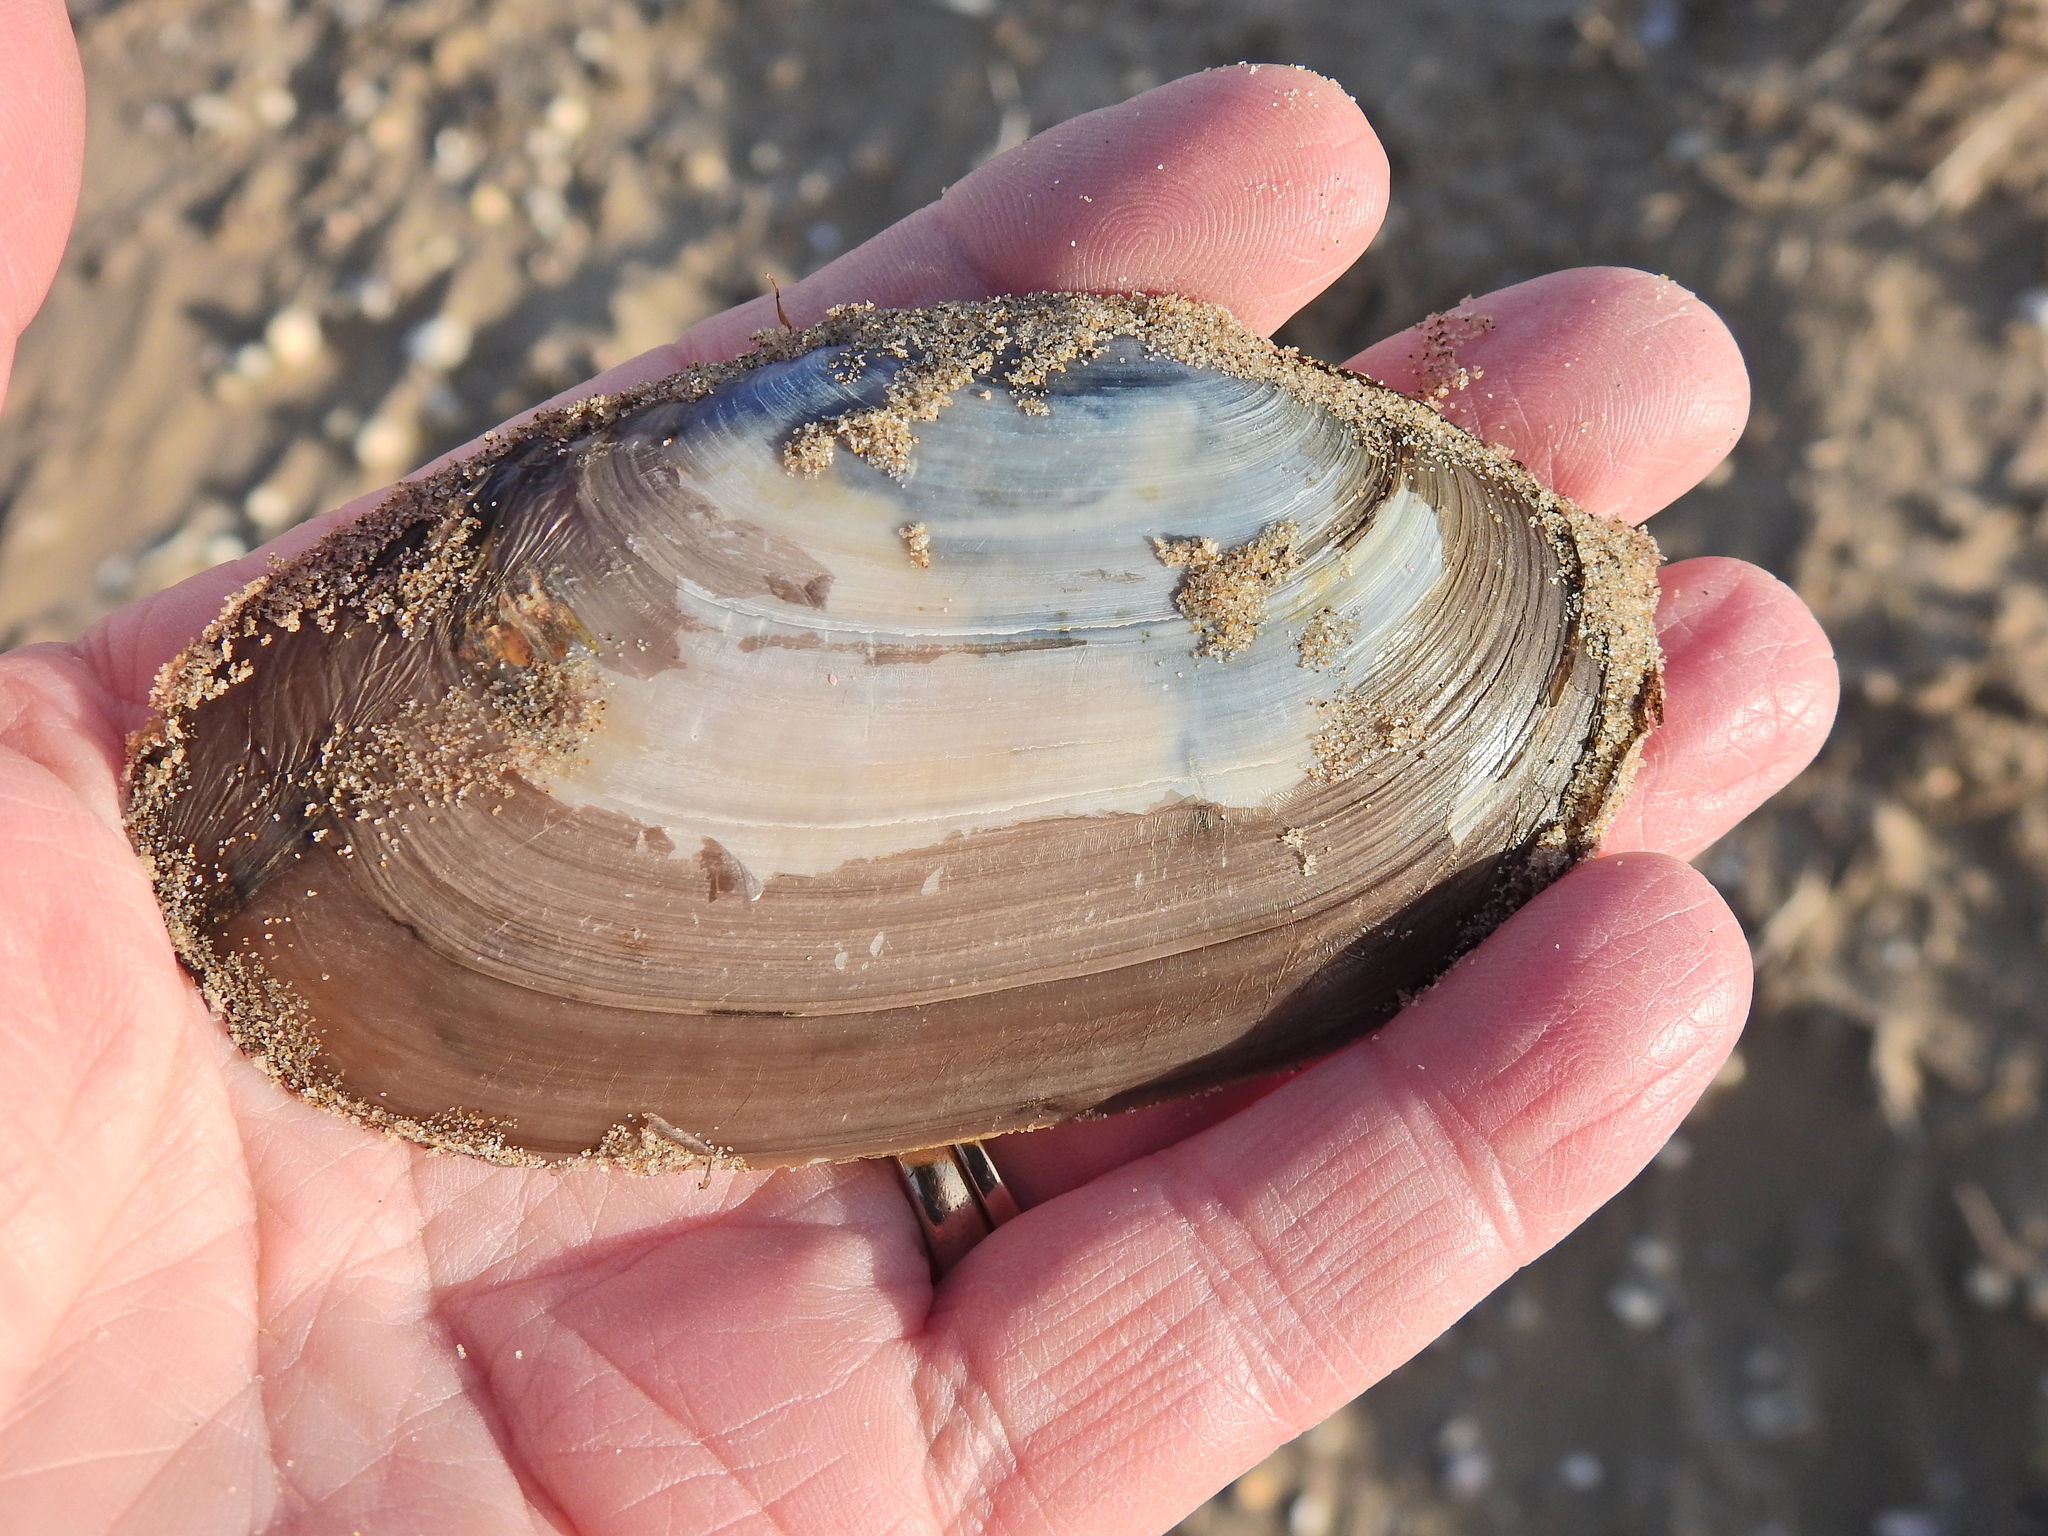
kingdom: Animalia
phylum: Mollusca
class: Bivalvia
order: Venerida
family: Mactridae
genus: Lutraria
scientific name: Lutraria lutraria
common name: Common otter shell
